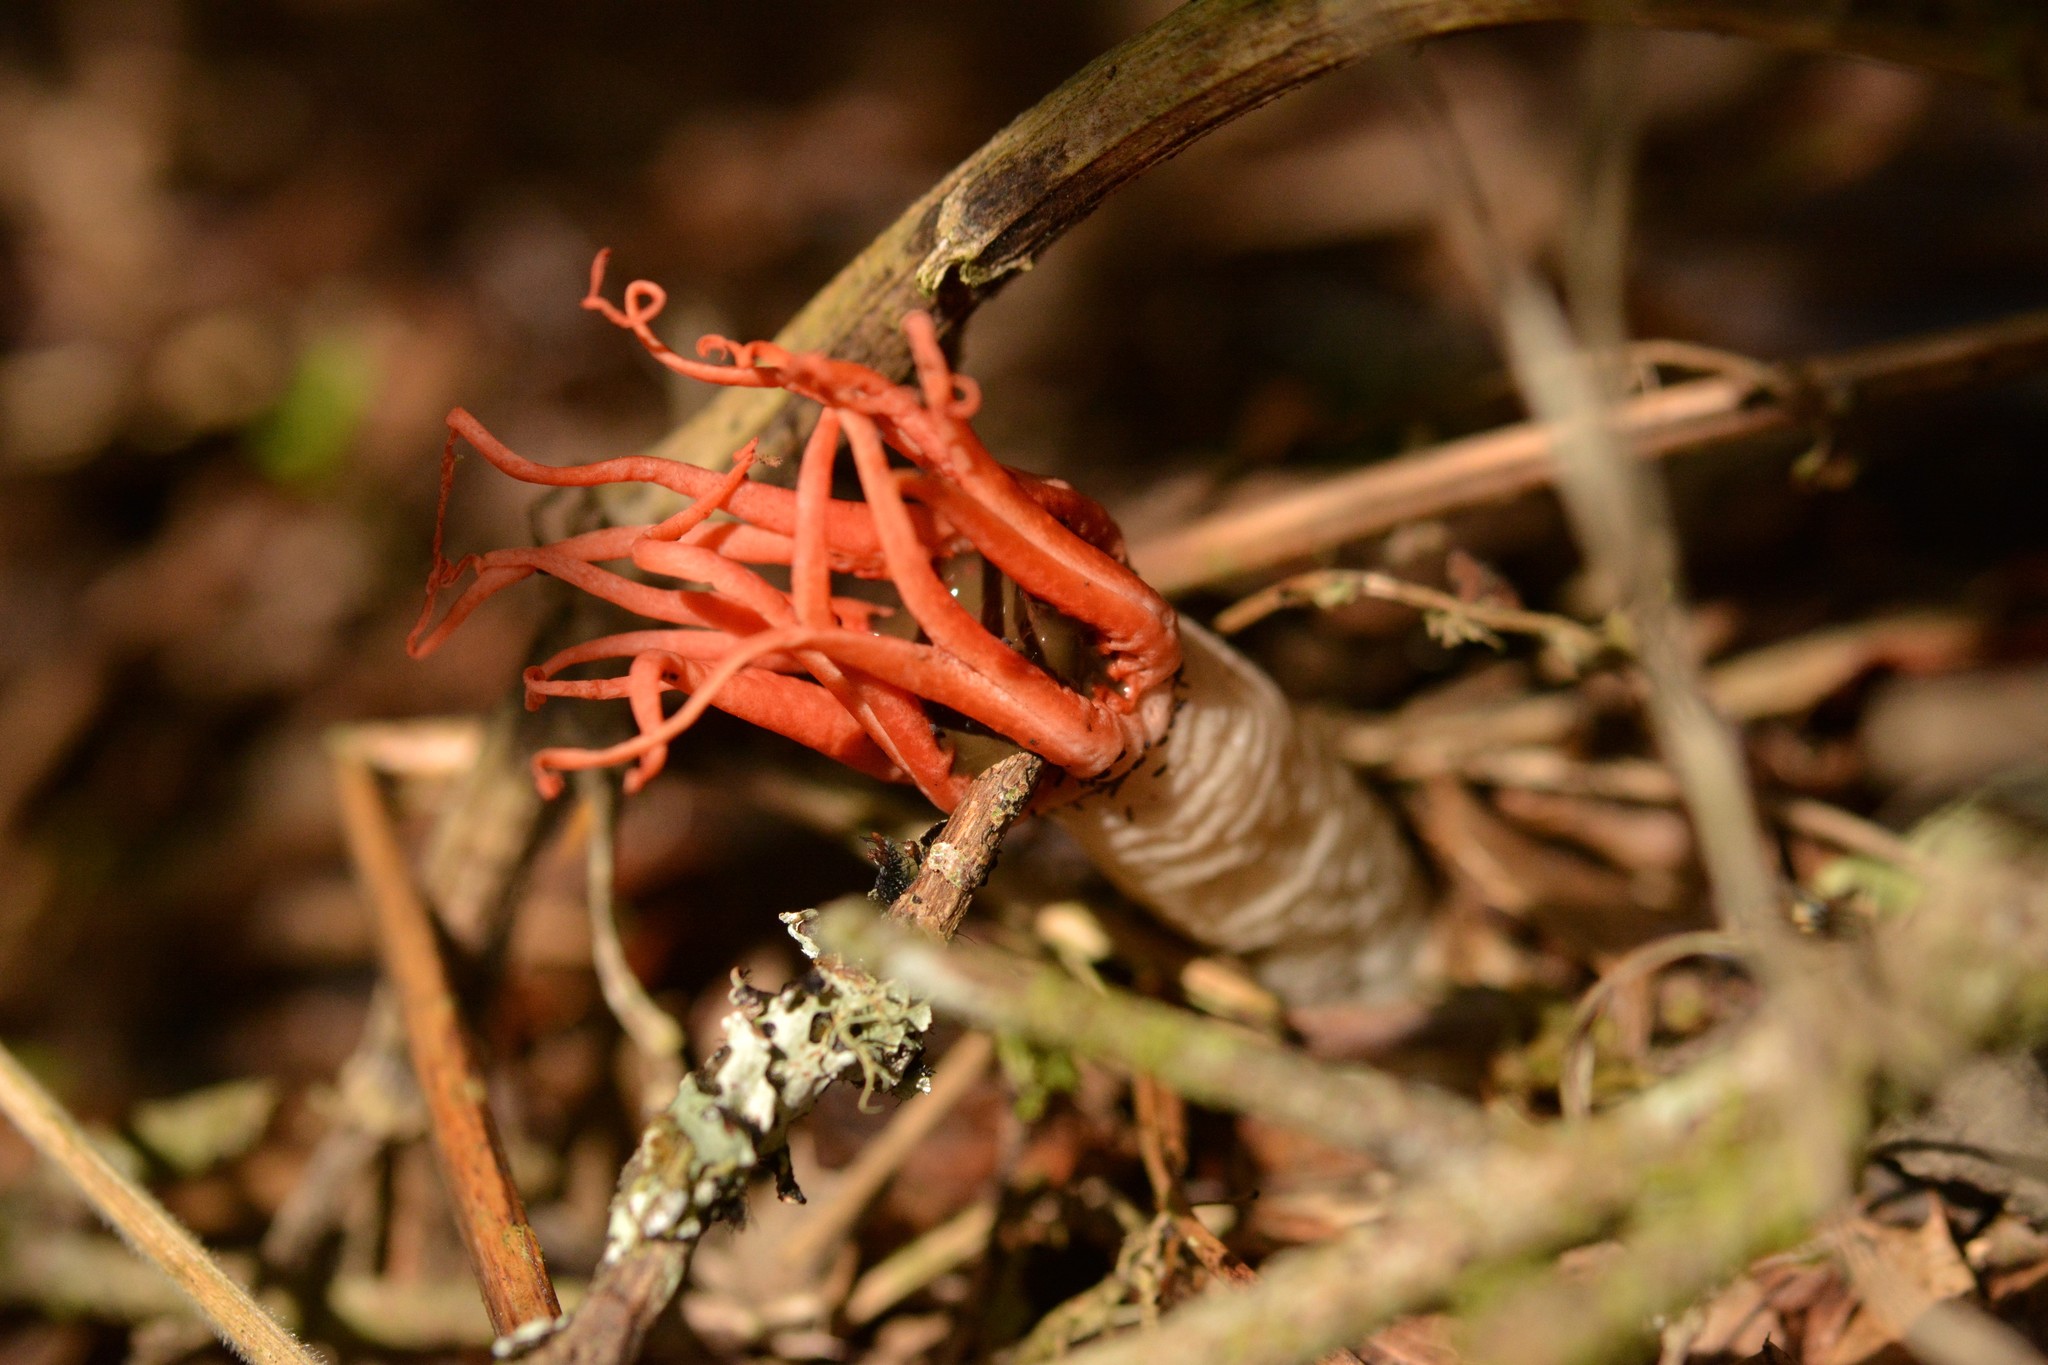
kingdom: Fungi
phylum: Basidiomycota
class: Agaricomycetes
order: Phallales
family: Phallaceae
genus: Aseroe
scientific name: Aseroe rubra
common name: Starfish fungus
